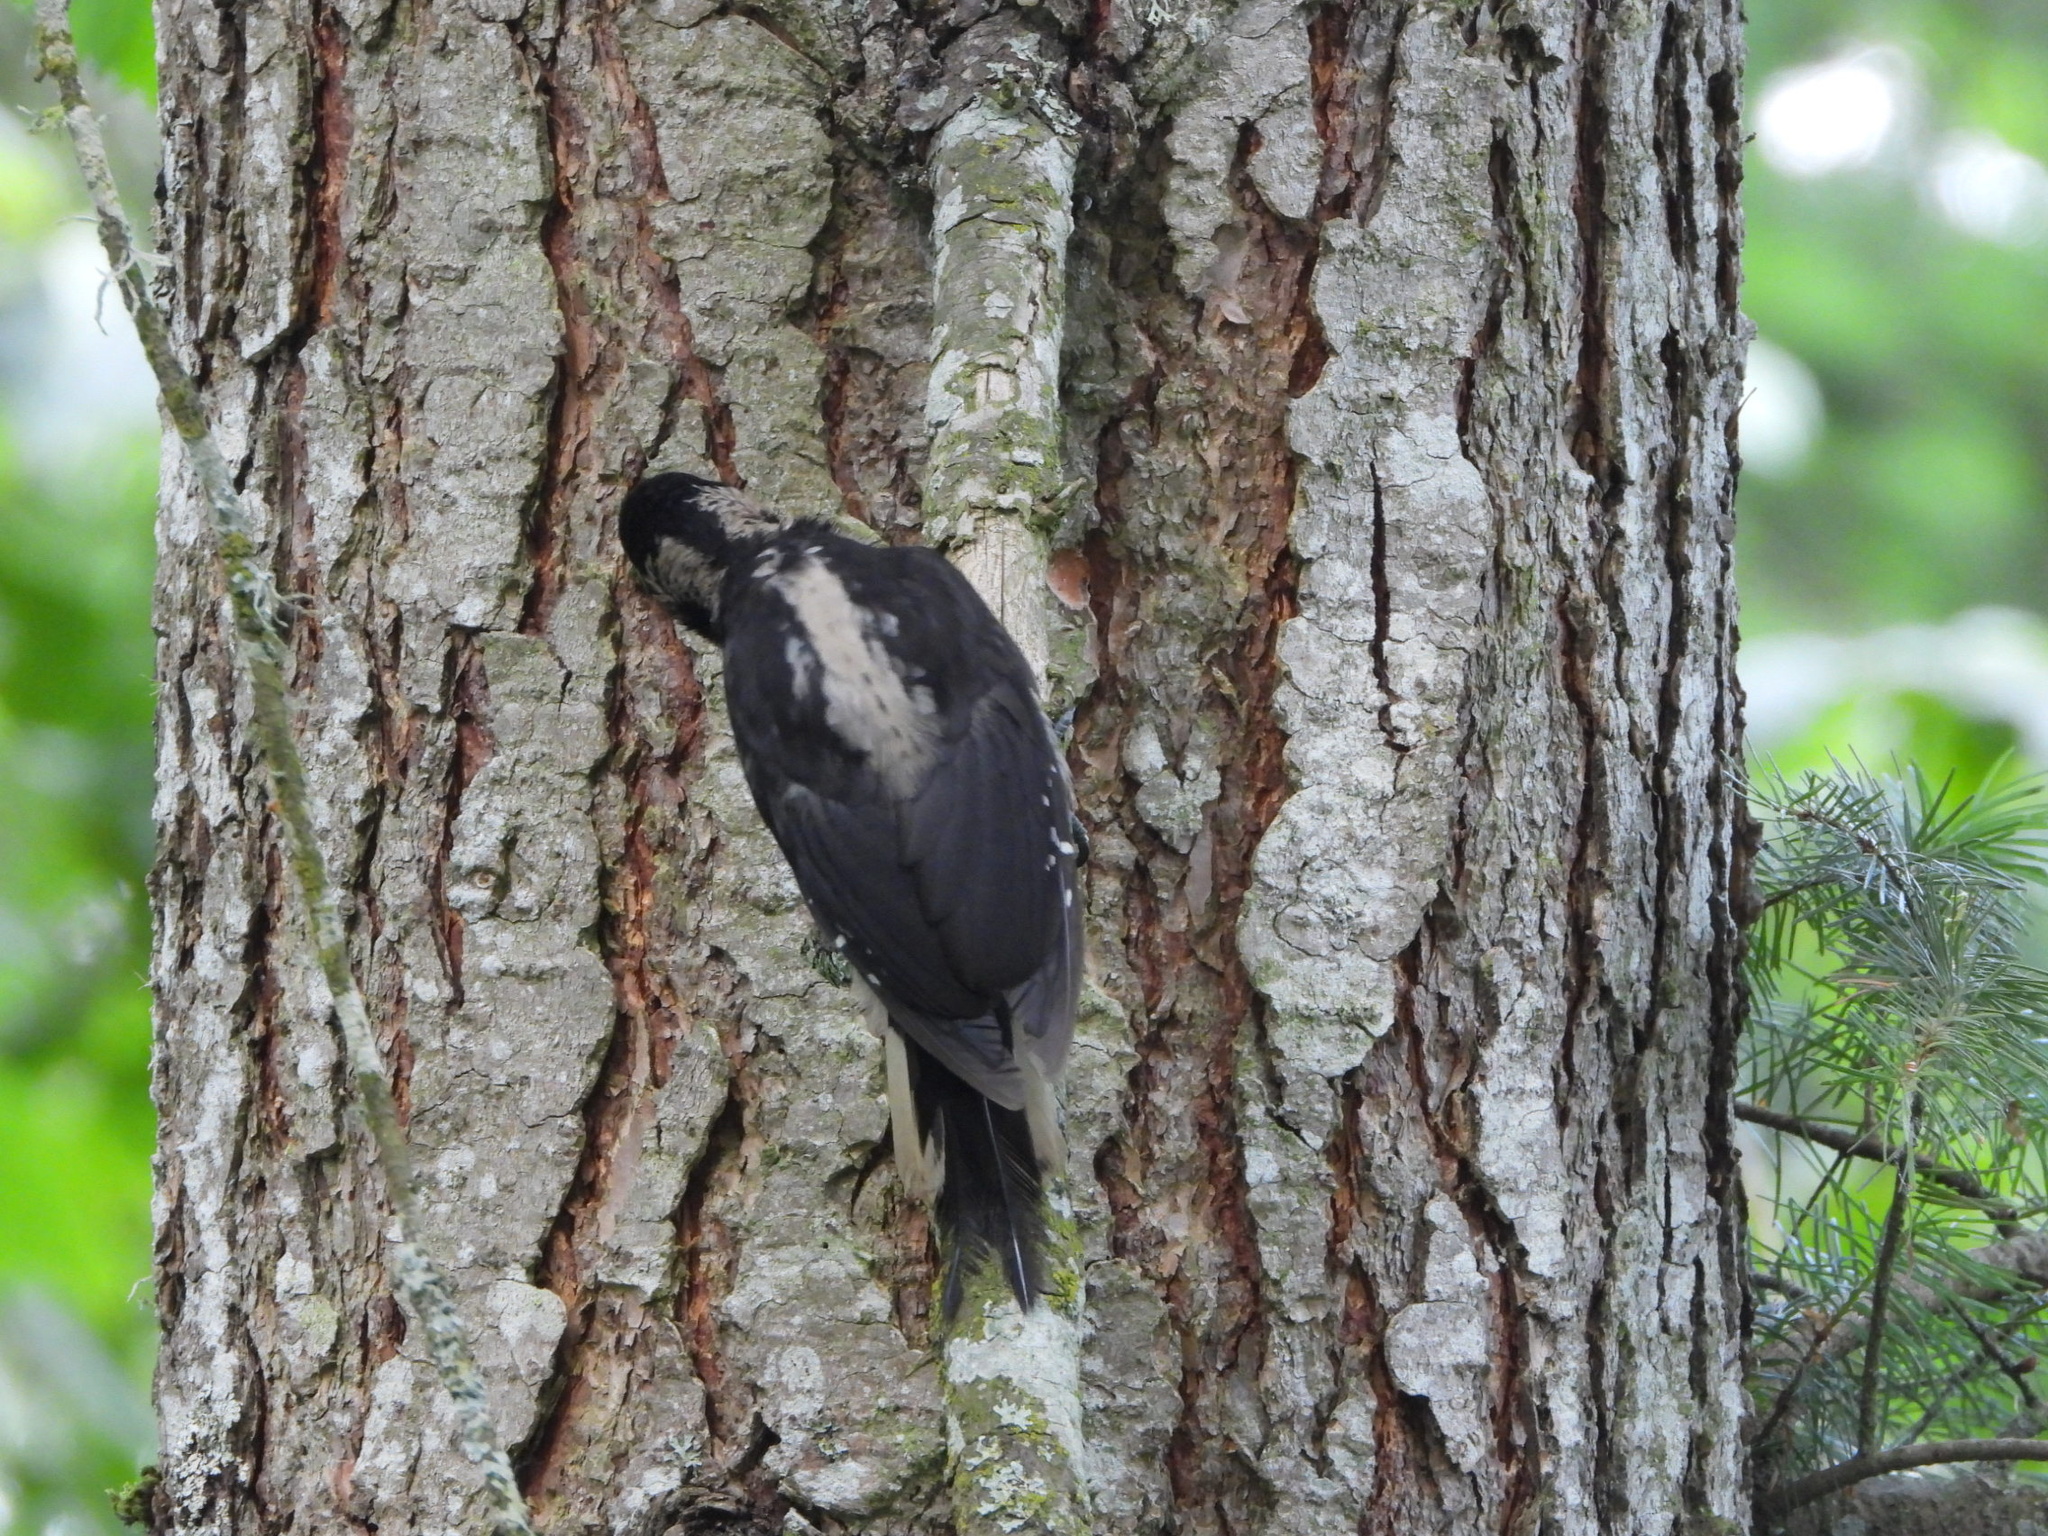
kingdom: Animalia
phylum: Chordata
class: Aves
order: Piciformes
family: Picidae
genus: Leuconotopicus
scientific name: Leuconotopicus villosus
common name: Hairy woodpecker
